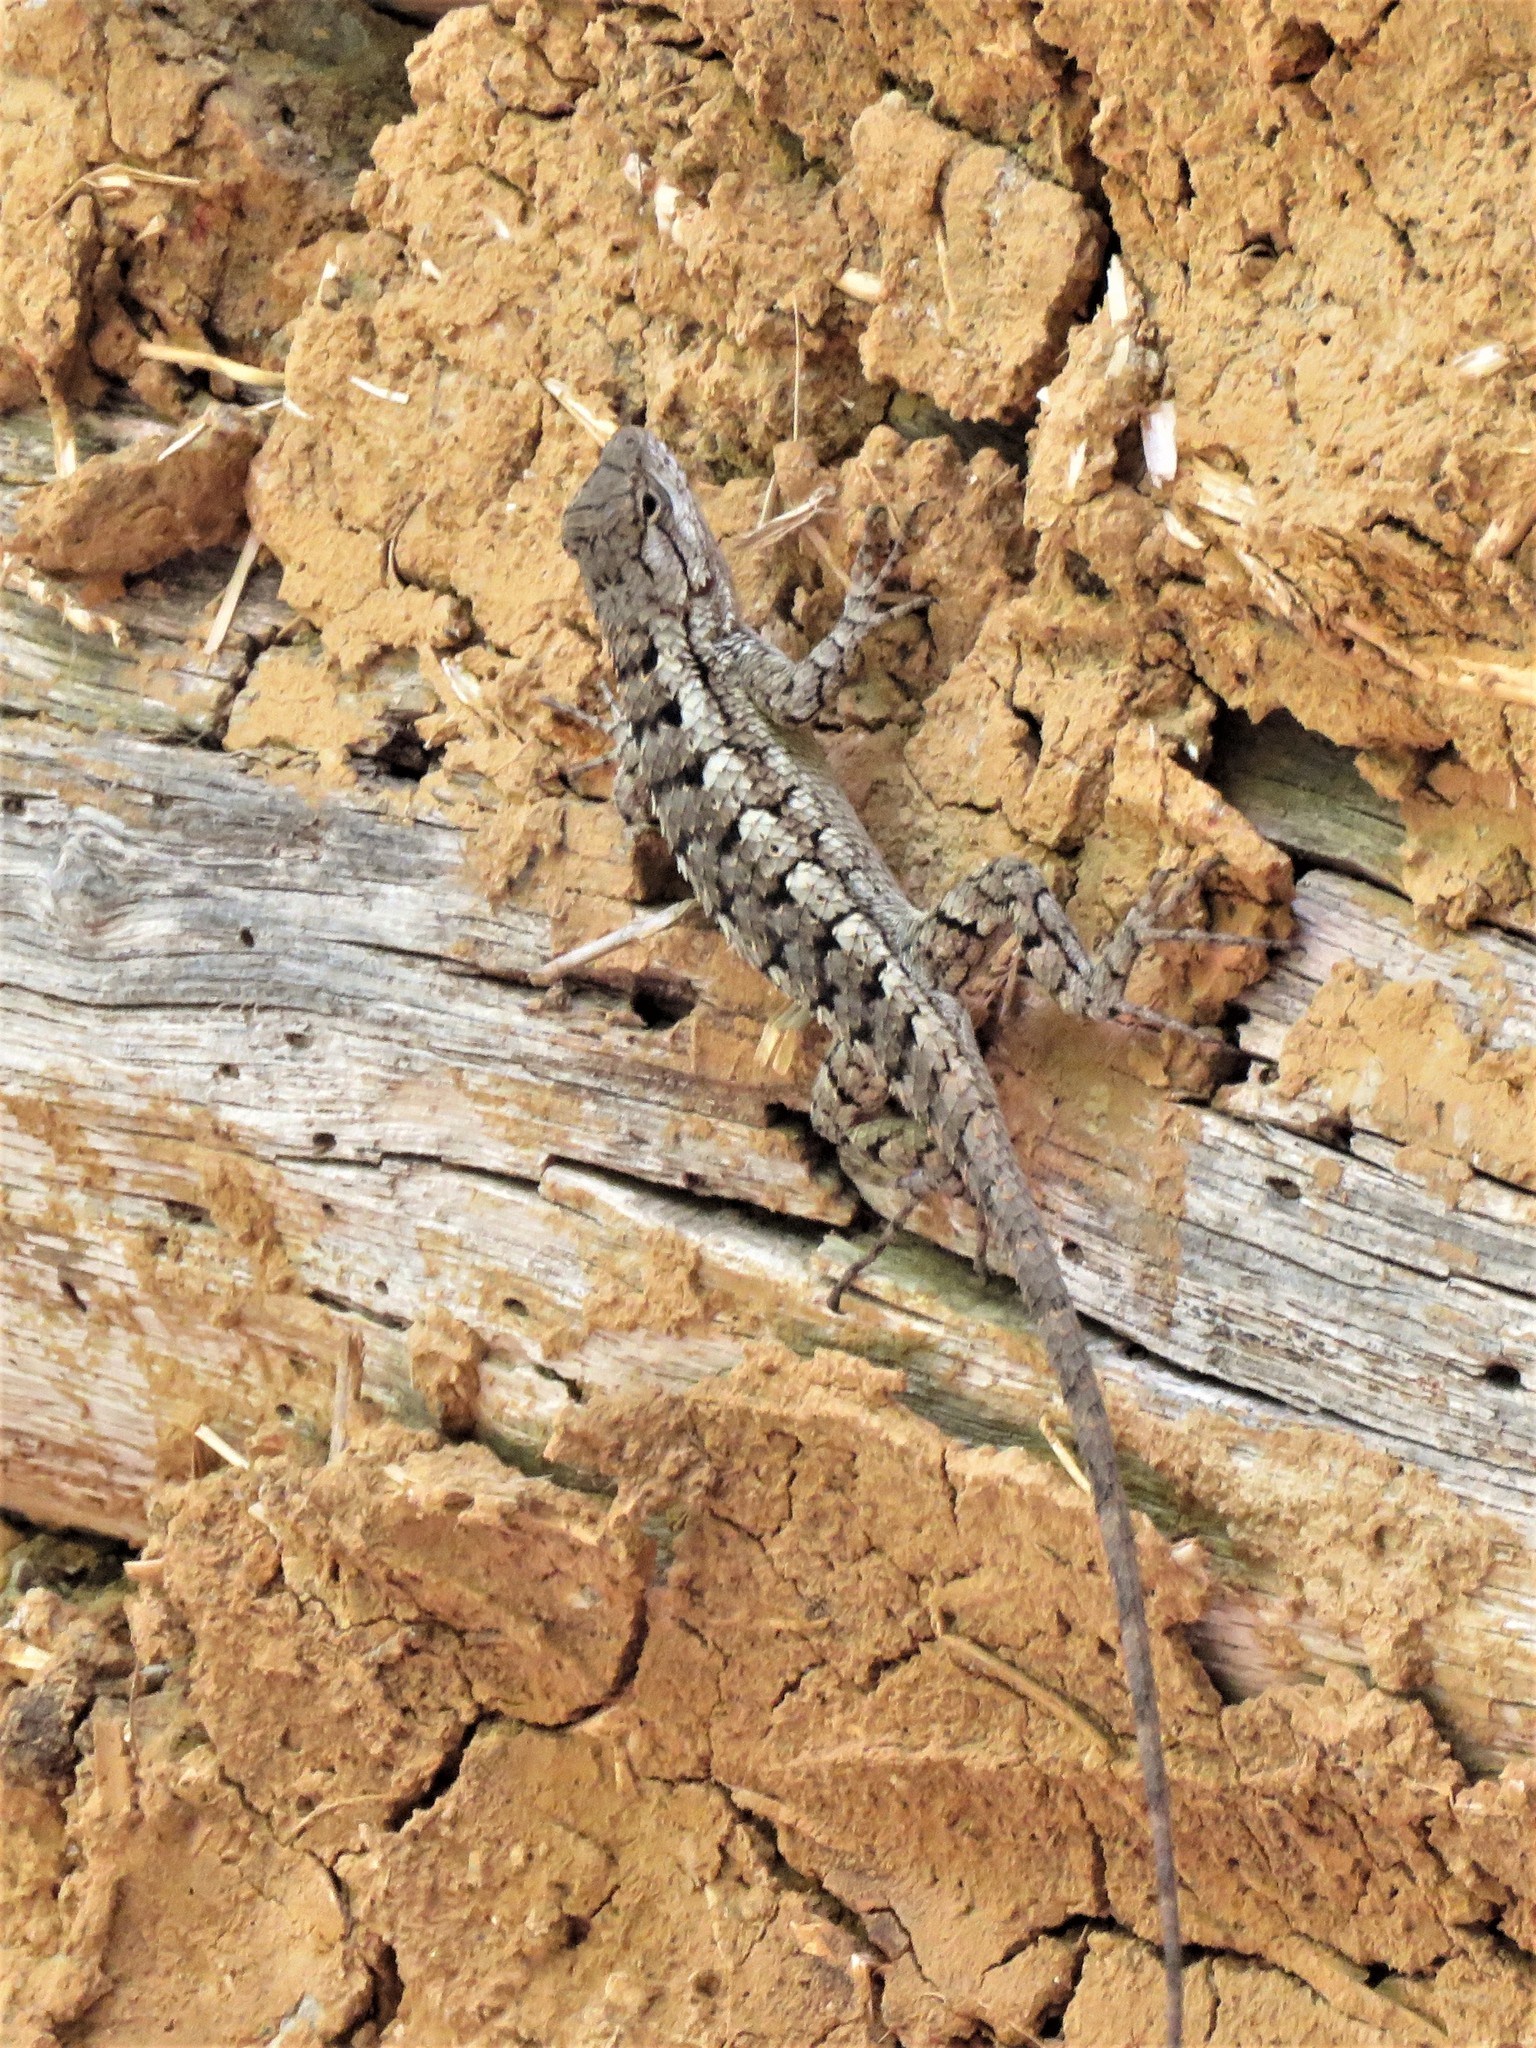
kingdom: Animalia
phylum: Chordata
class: Squamata
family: Phrynosomatidae
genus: Sceloporus
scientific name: Sceloporus olivaceus
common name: Texas spiny lizard
